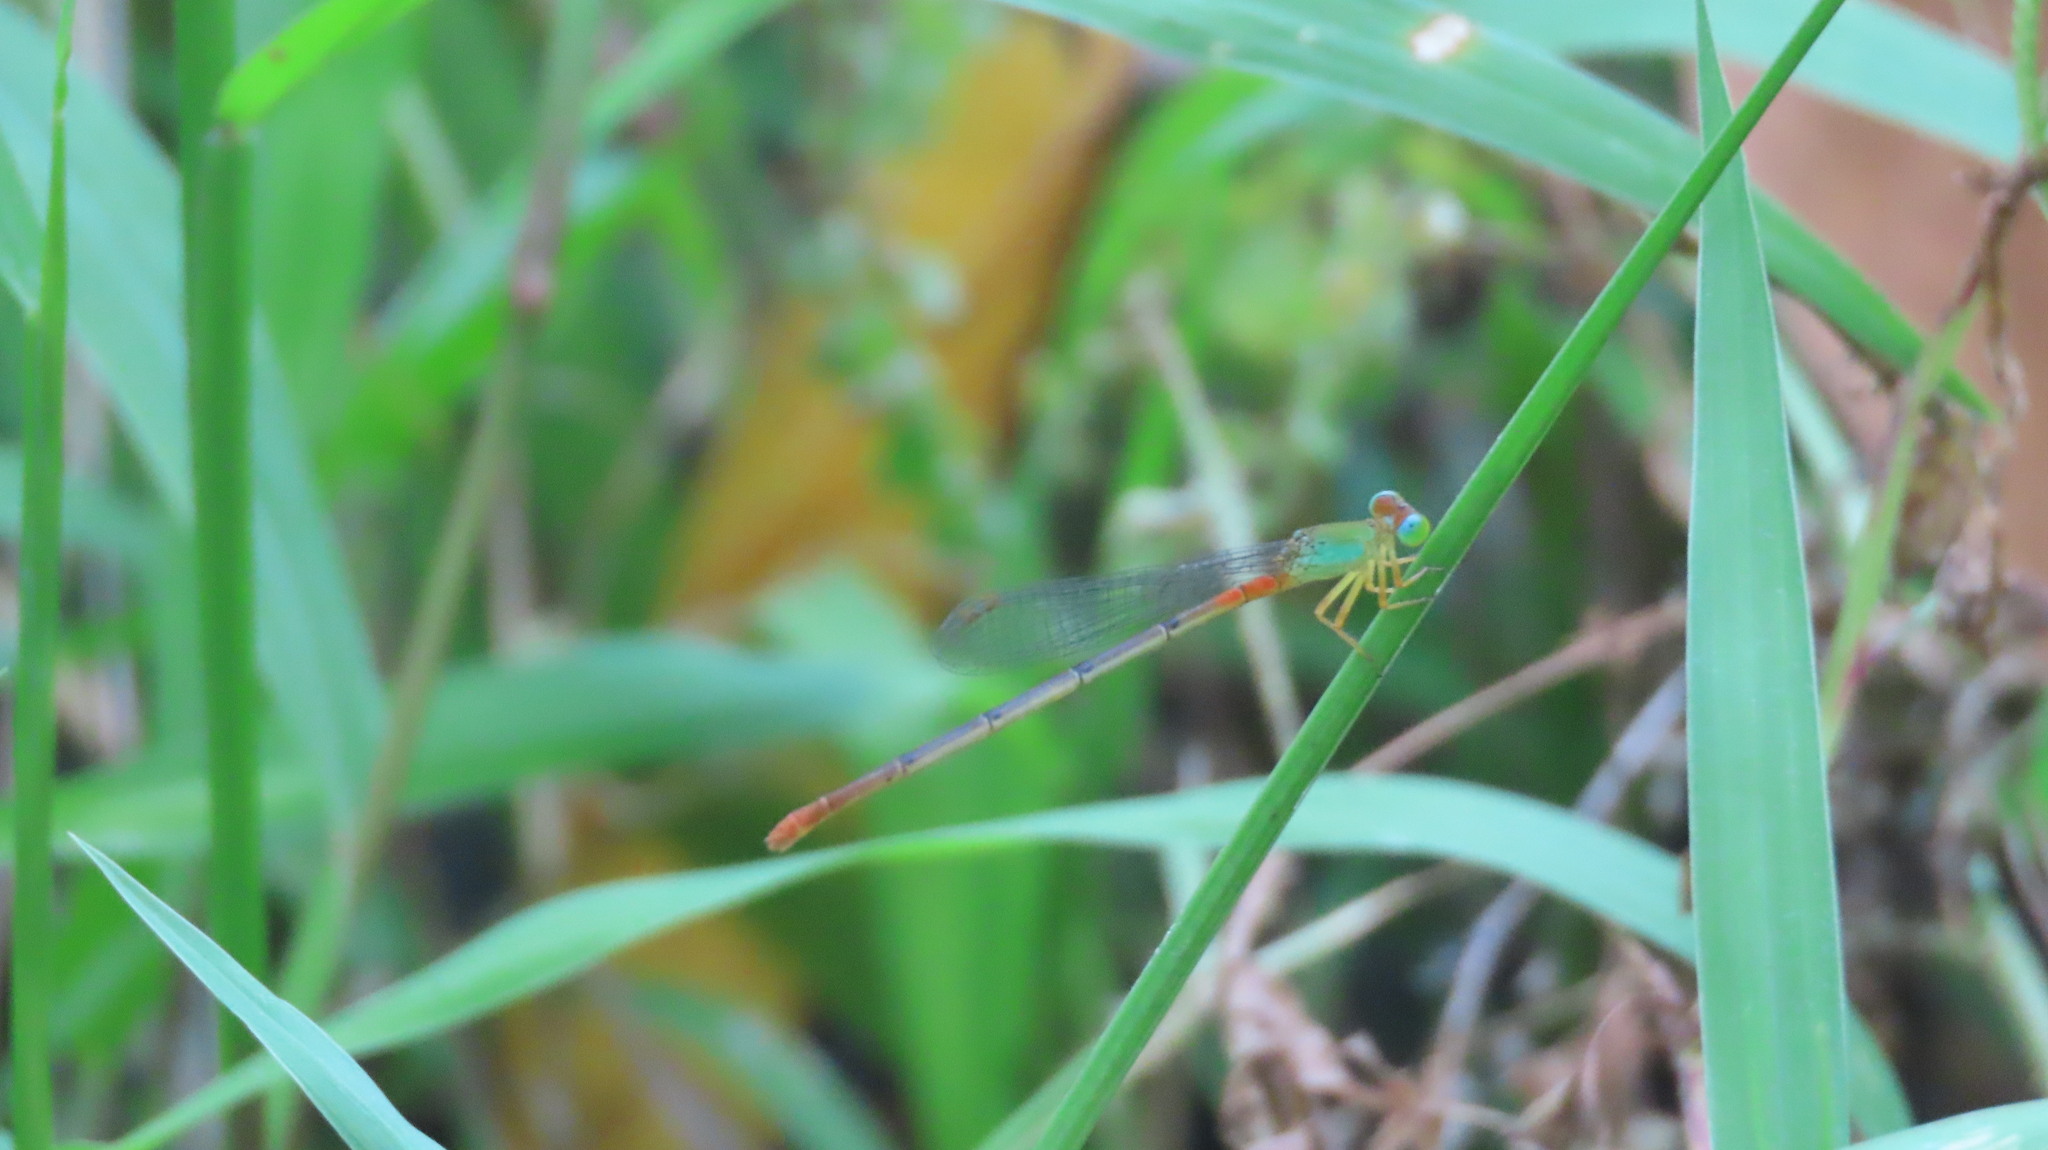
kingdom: Animalia
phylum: Arthropoda
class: Insecta
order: Odonata
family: Coenagrionidae
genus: Ceriagrion
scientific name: Ceriagrion cerinorubellum
